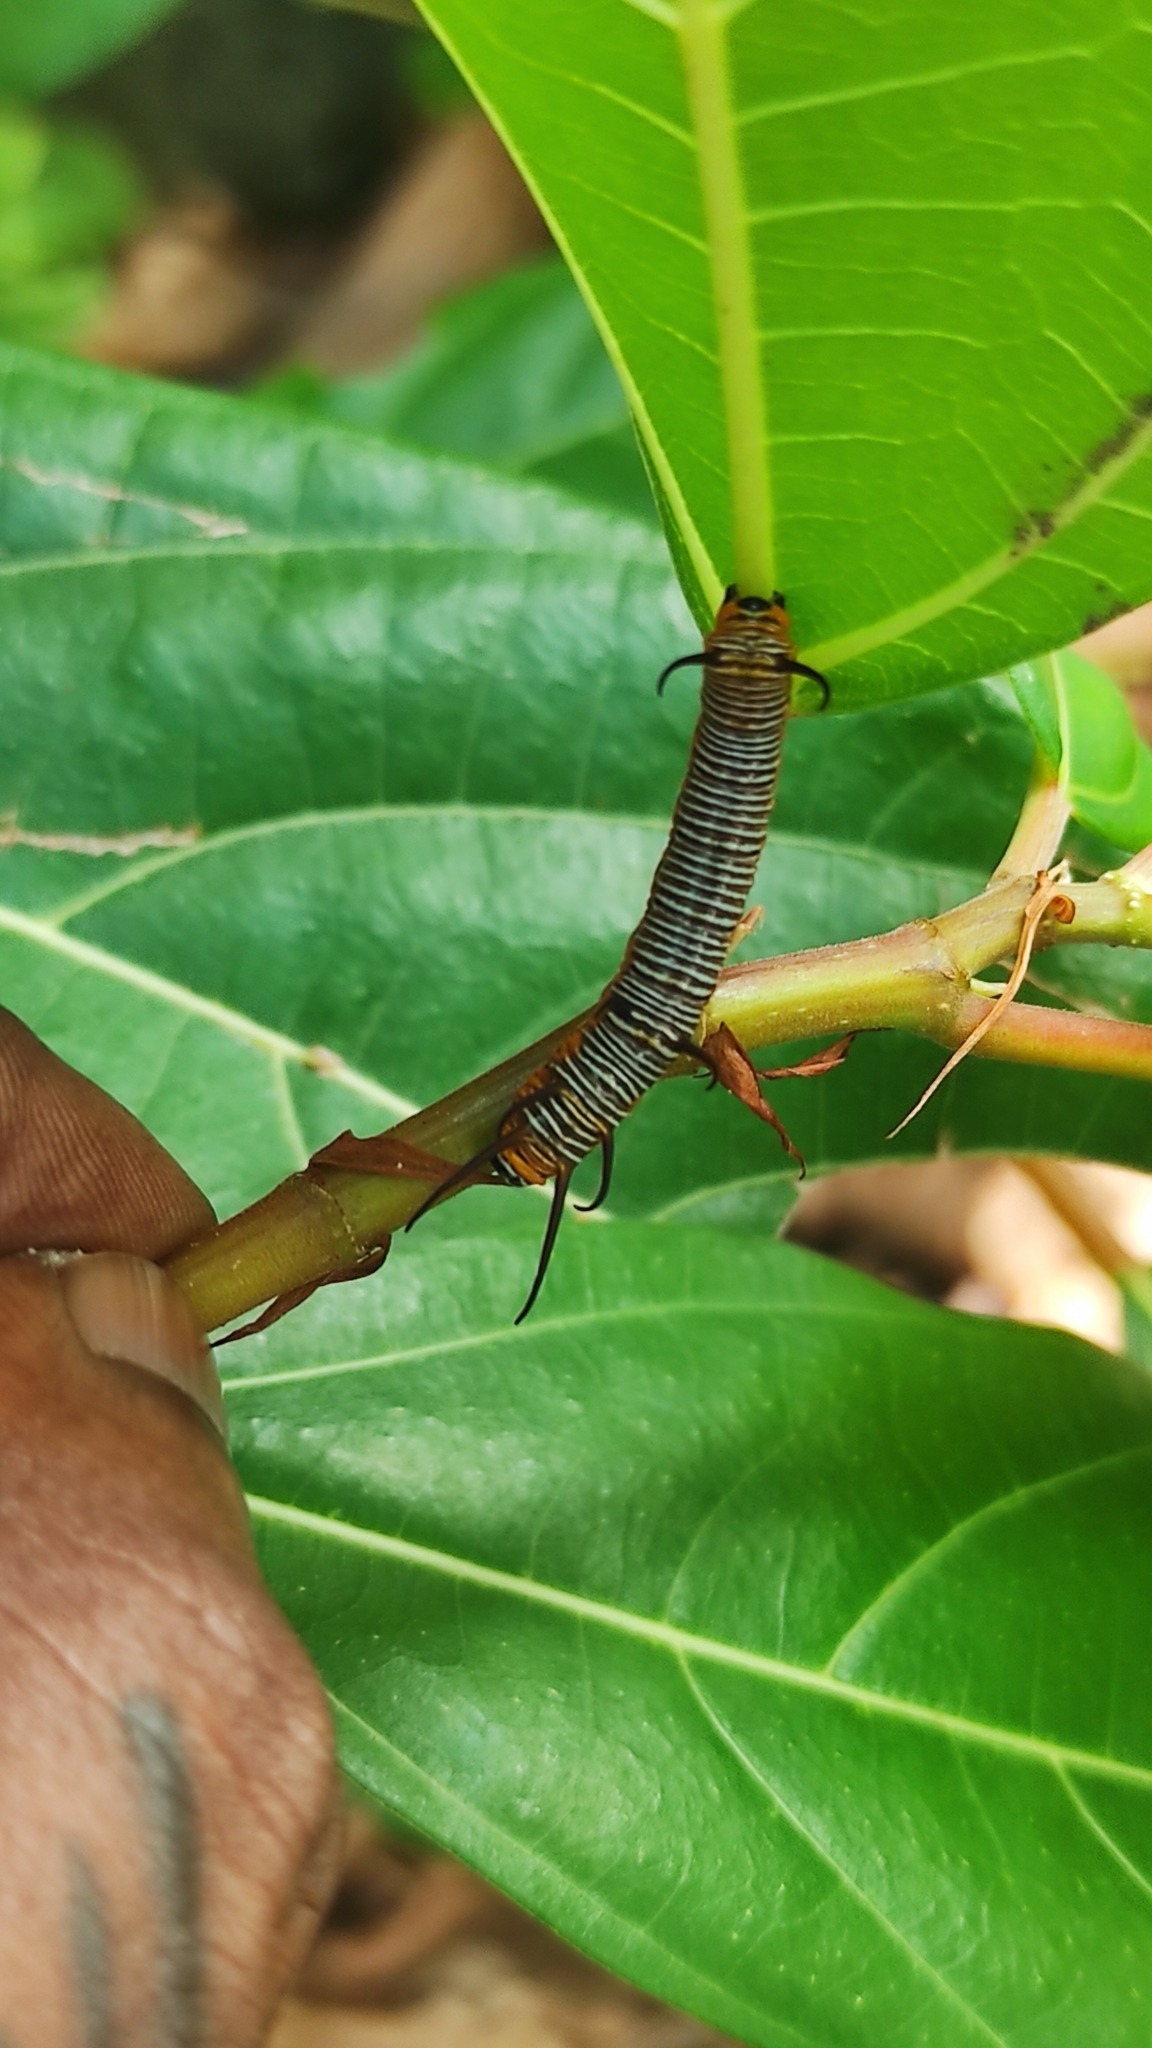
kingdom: Animalia
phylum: Arthropoda
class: Insecta
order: Lepidoptera
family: Nymphalidae
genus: Euploea
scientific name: Euploea core
